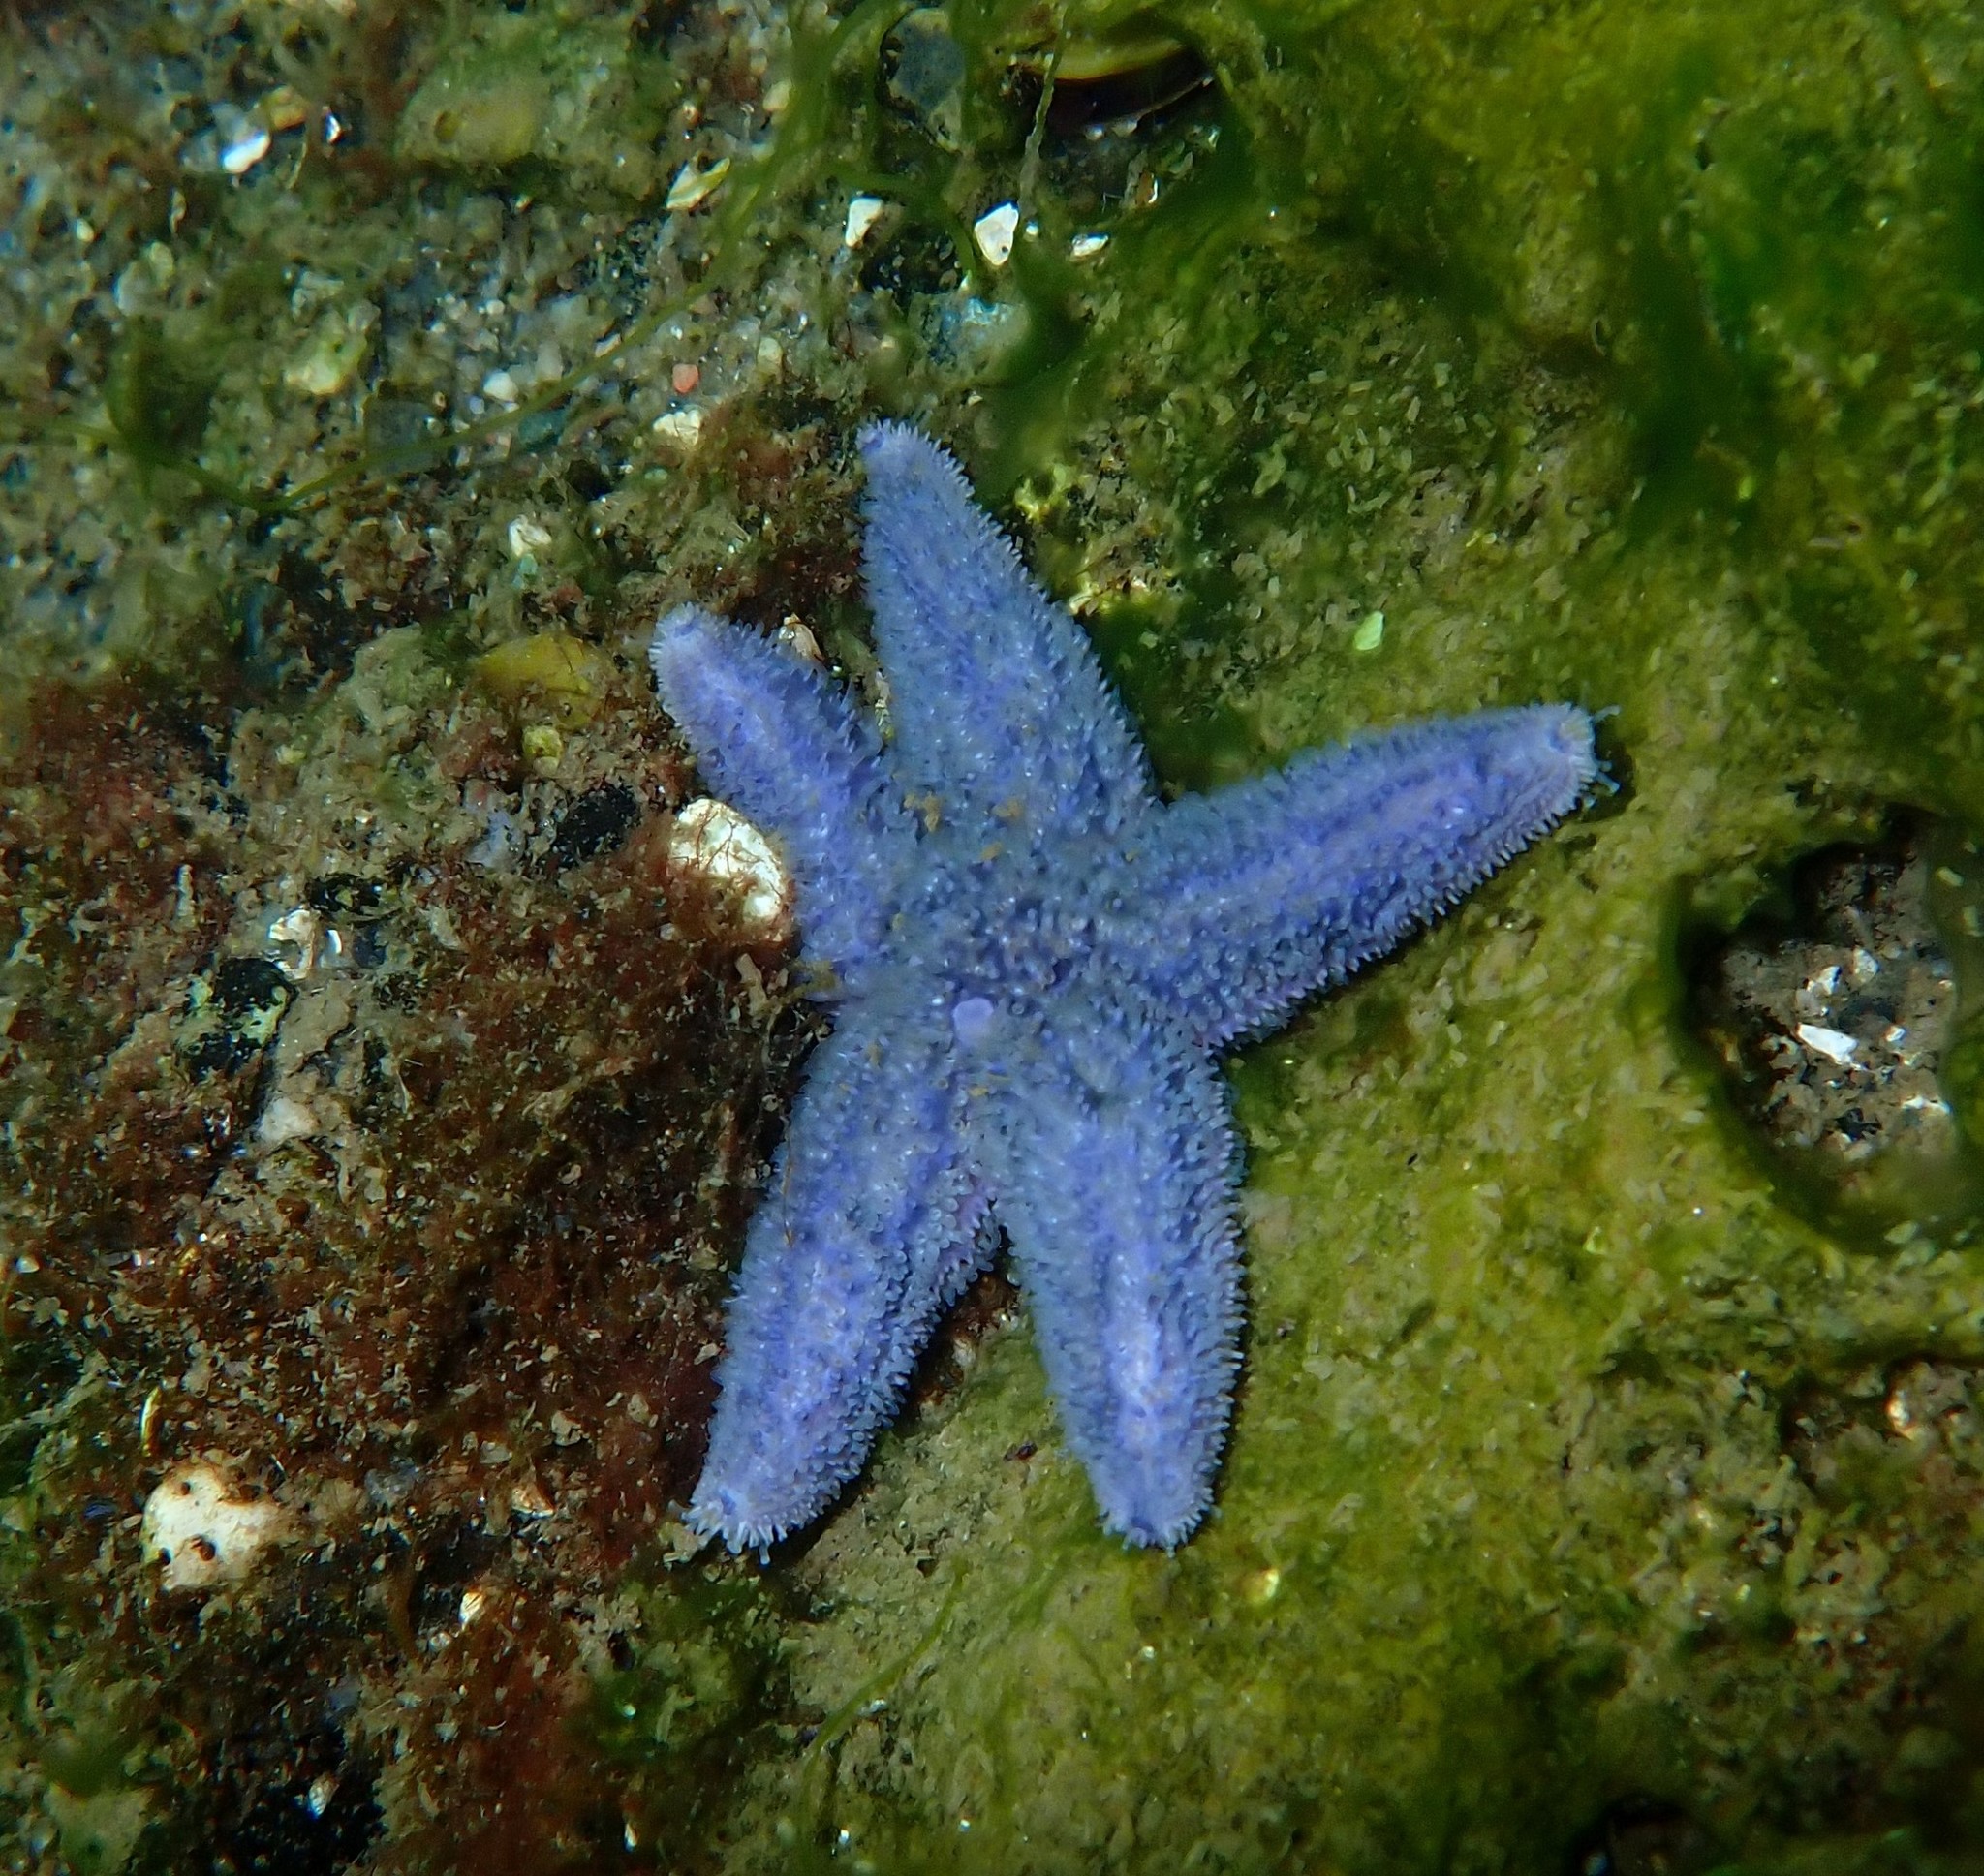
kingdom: Animalia
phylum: Echinodermata
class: Asteroidea
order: Forcipulatida
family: Asteriidae
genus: Asterias
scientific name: Asterias rubens
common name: Common starfish
